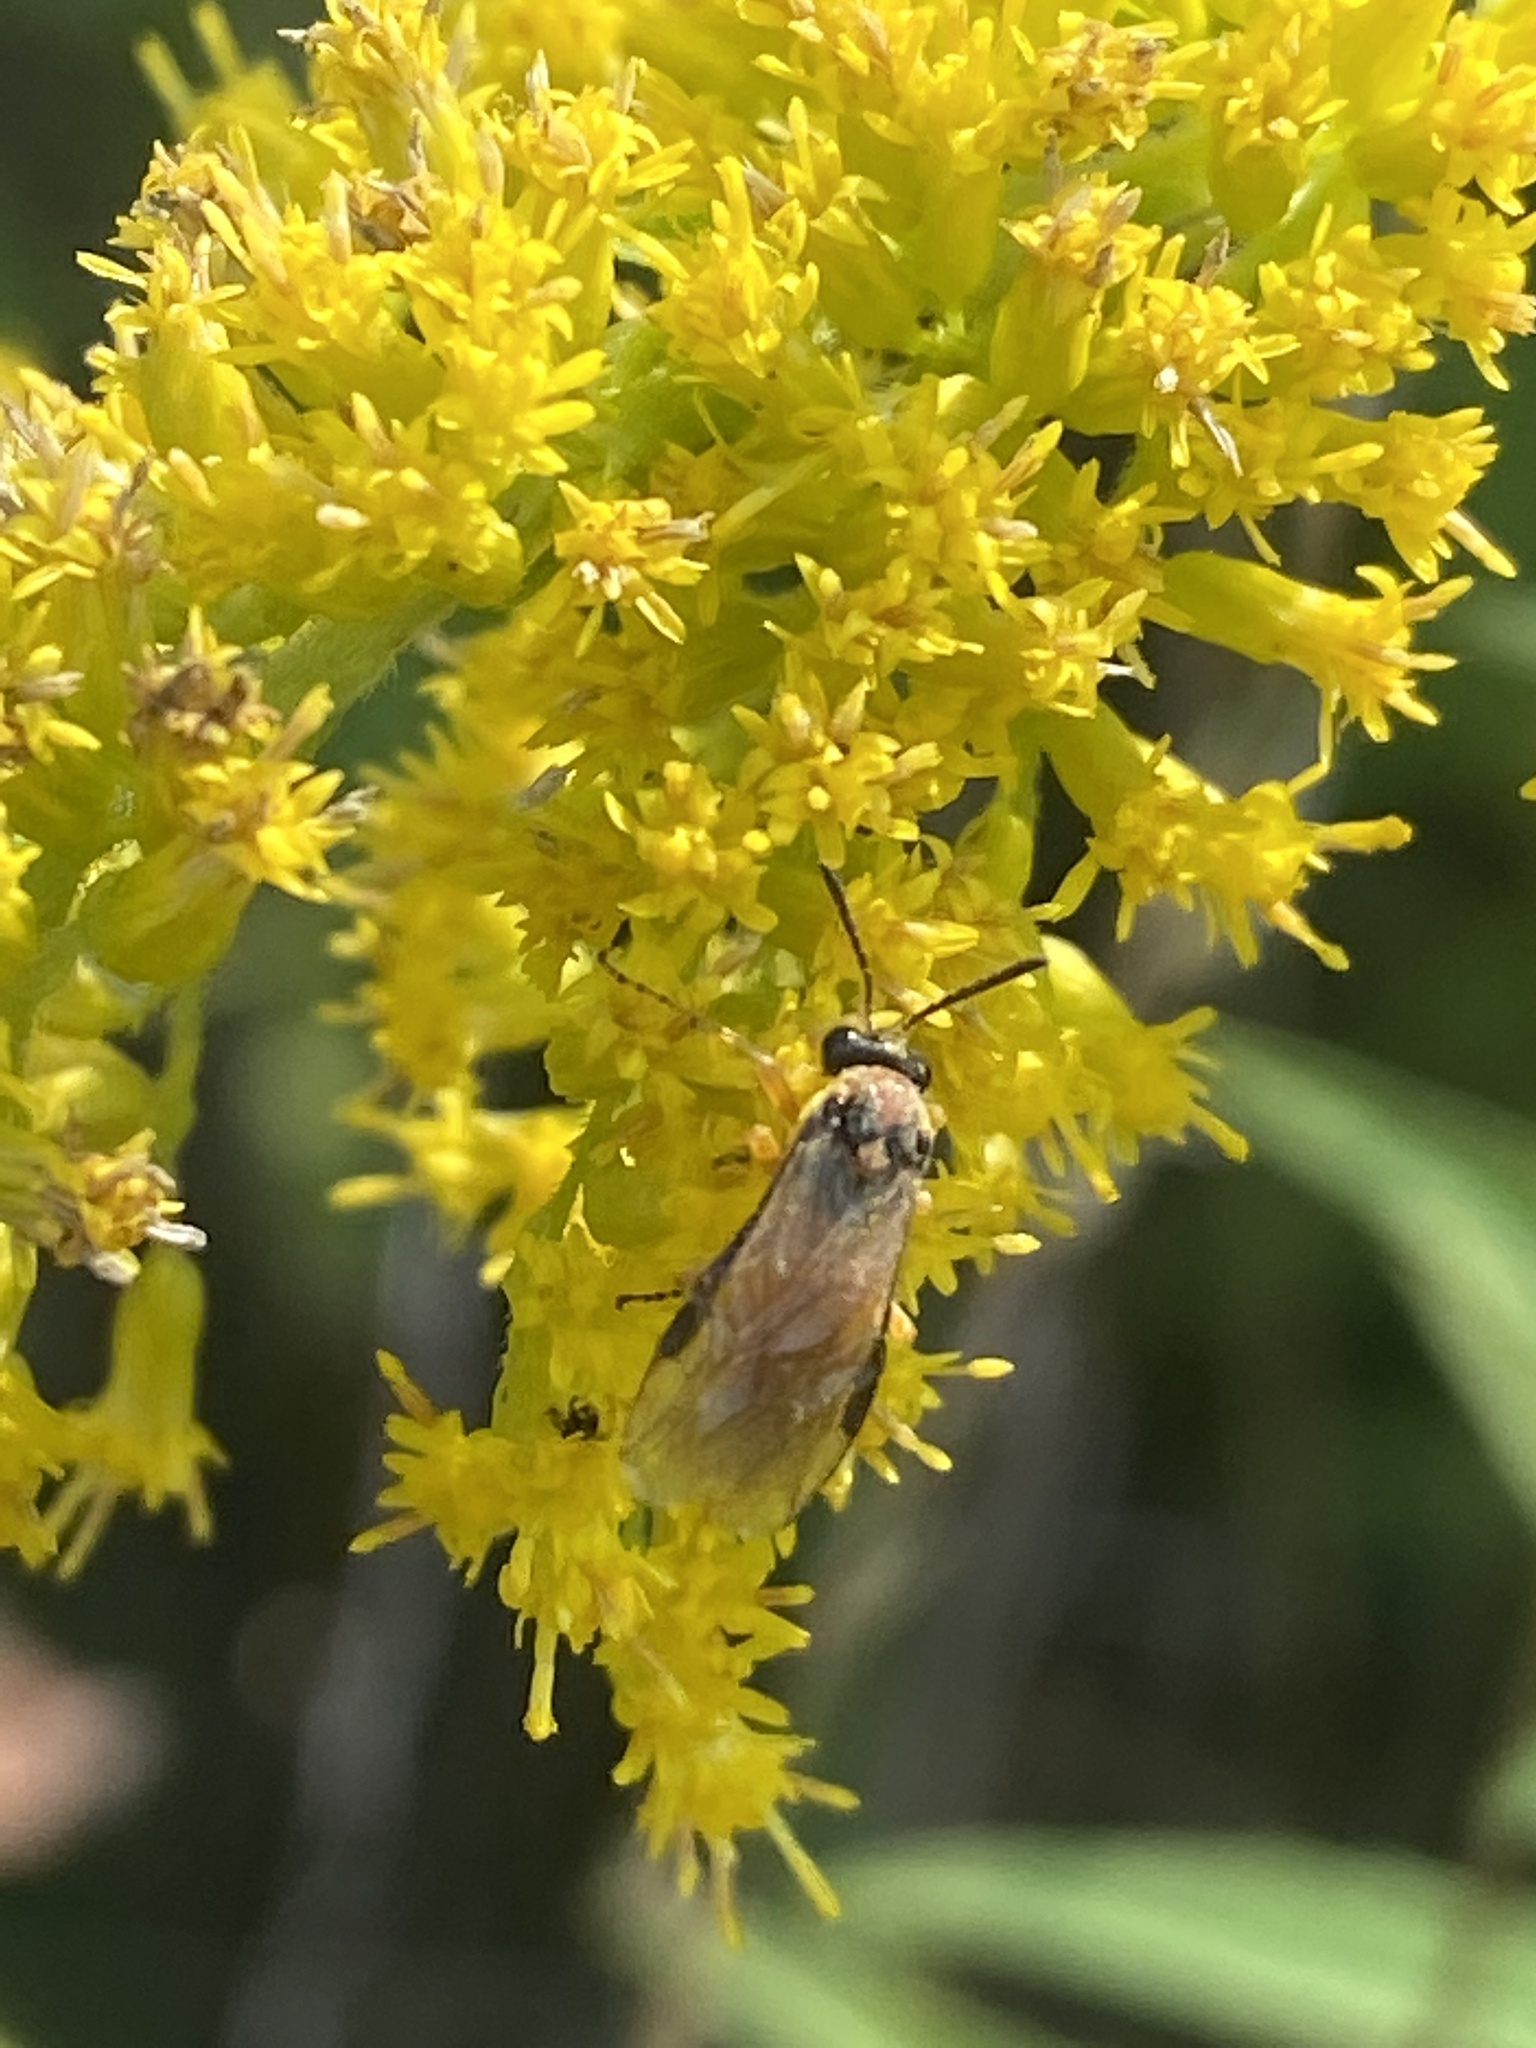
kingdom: Animalia
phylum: Arthropoda
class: Insecta
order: Hymenoptera
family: Tenthredinidae
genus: Athalia
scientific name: Athalia rosae
